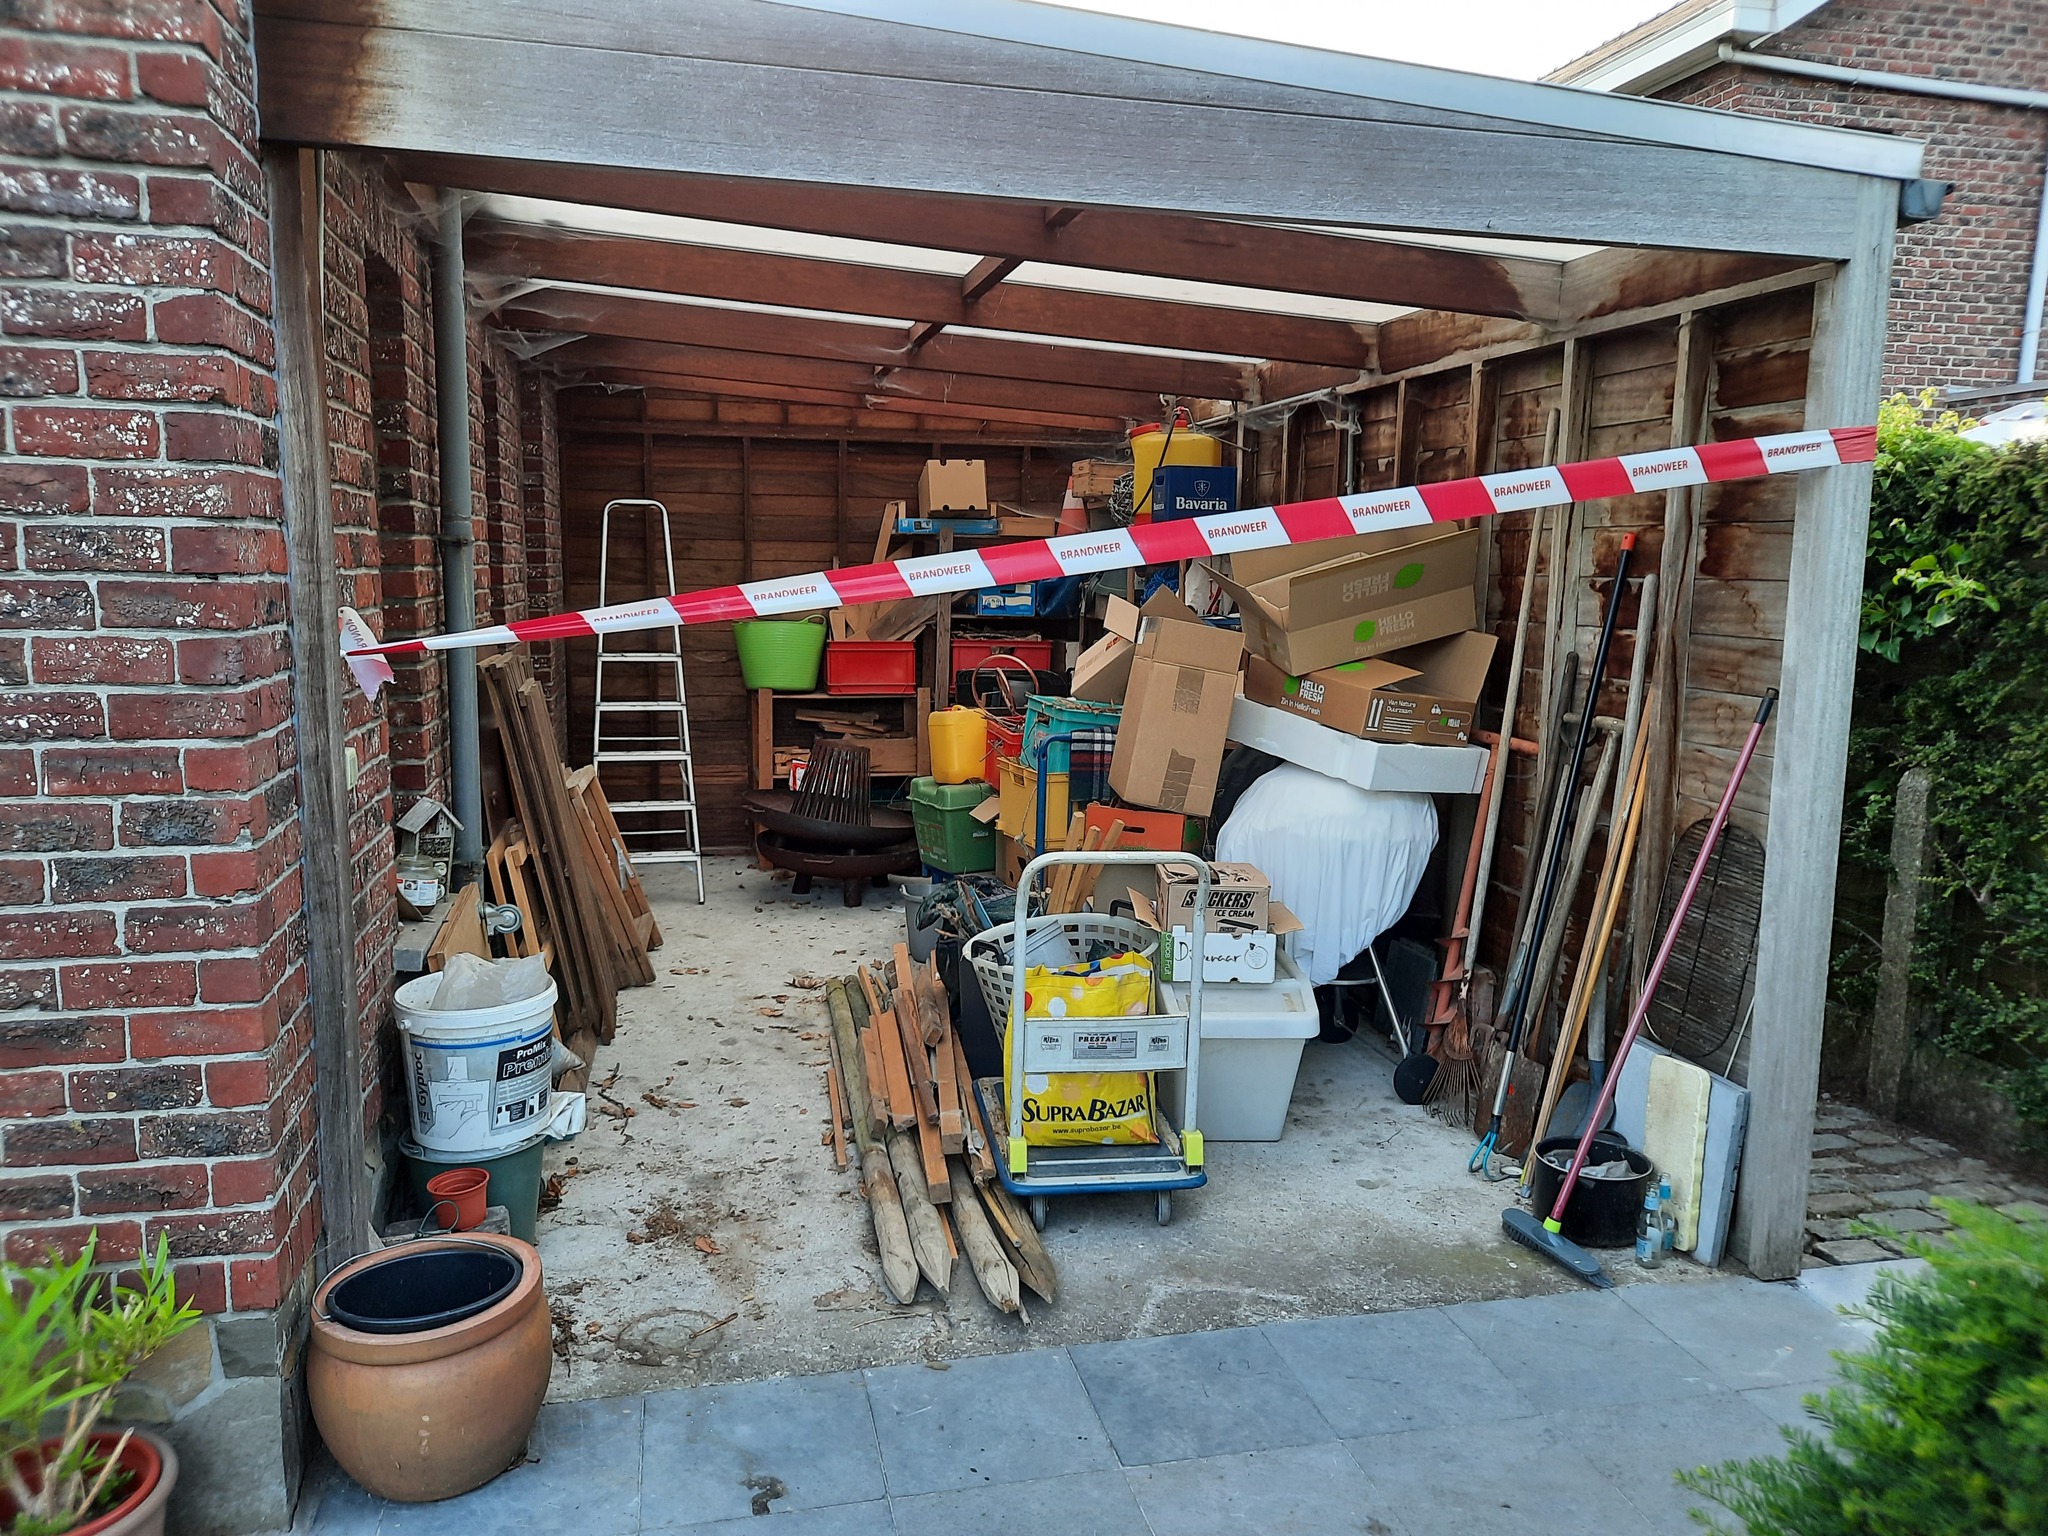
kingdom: Animalia
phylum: Arthropoda
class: Insecta
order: Hymenoptera
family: Vespidae
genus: Vespa
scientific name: Vespa velutina
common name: Asian hornet
